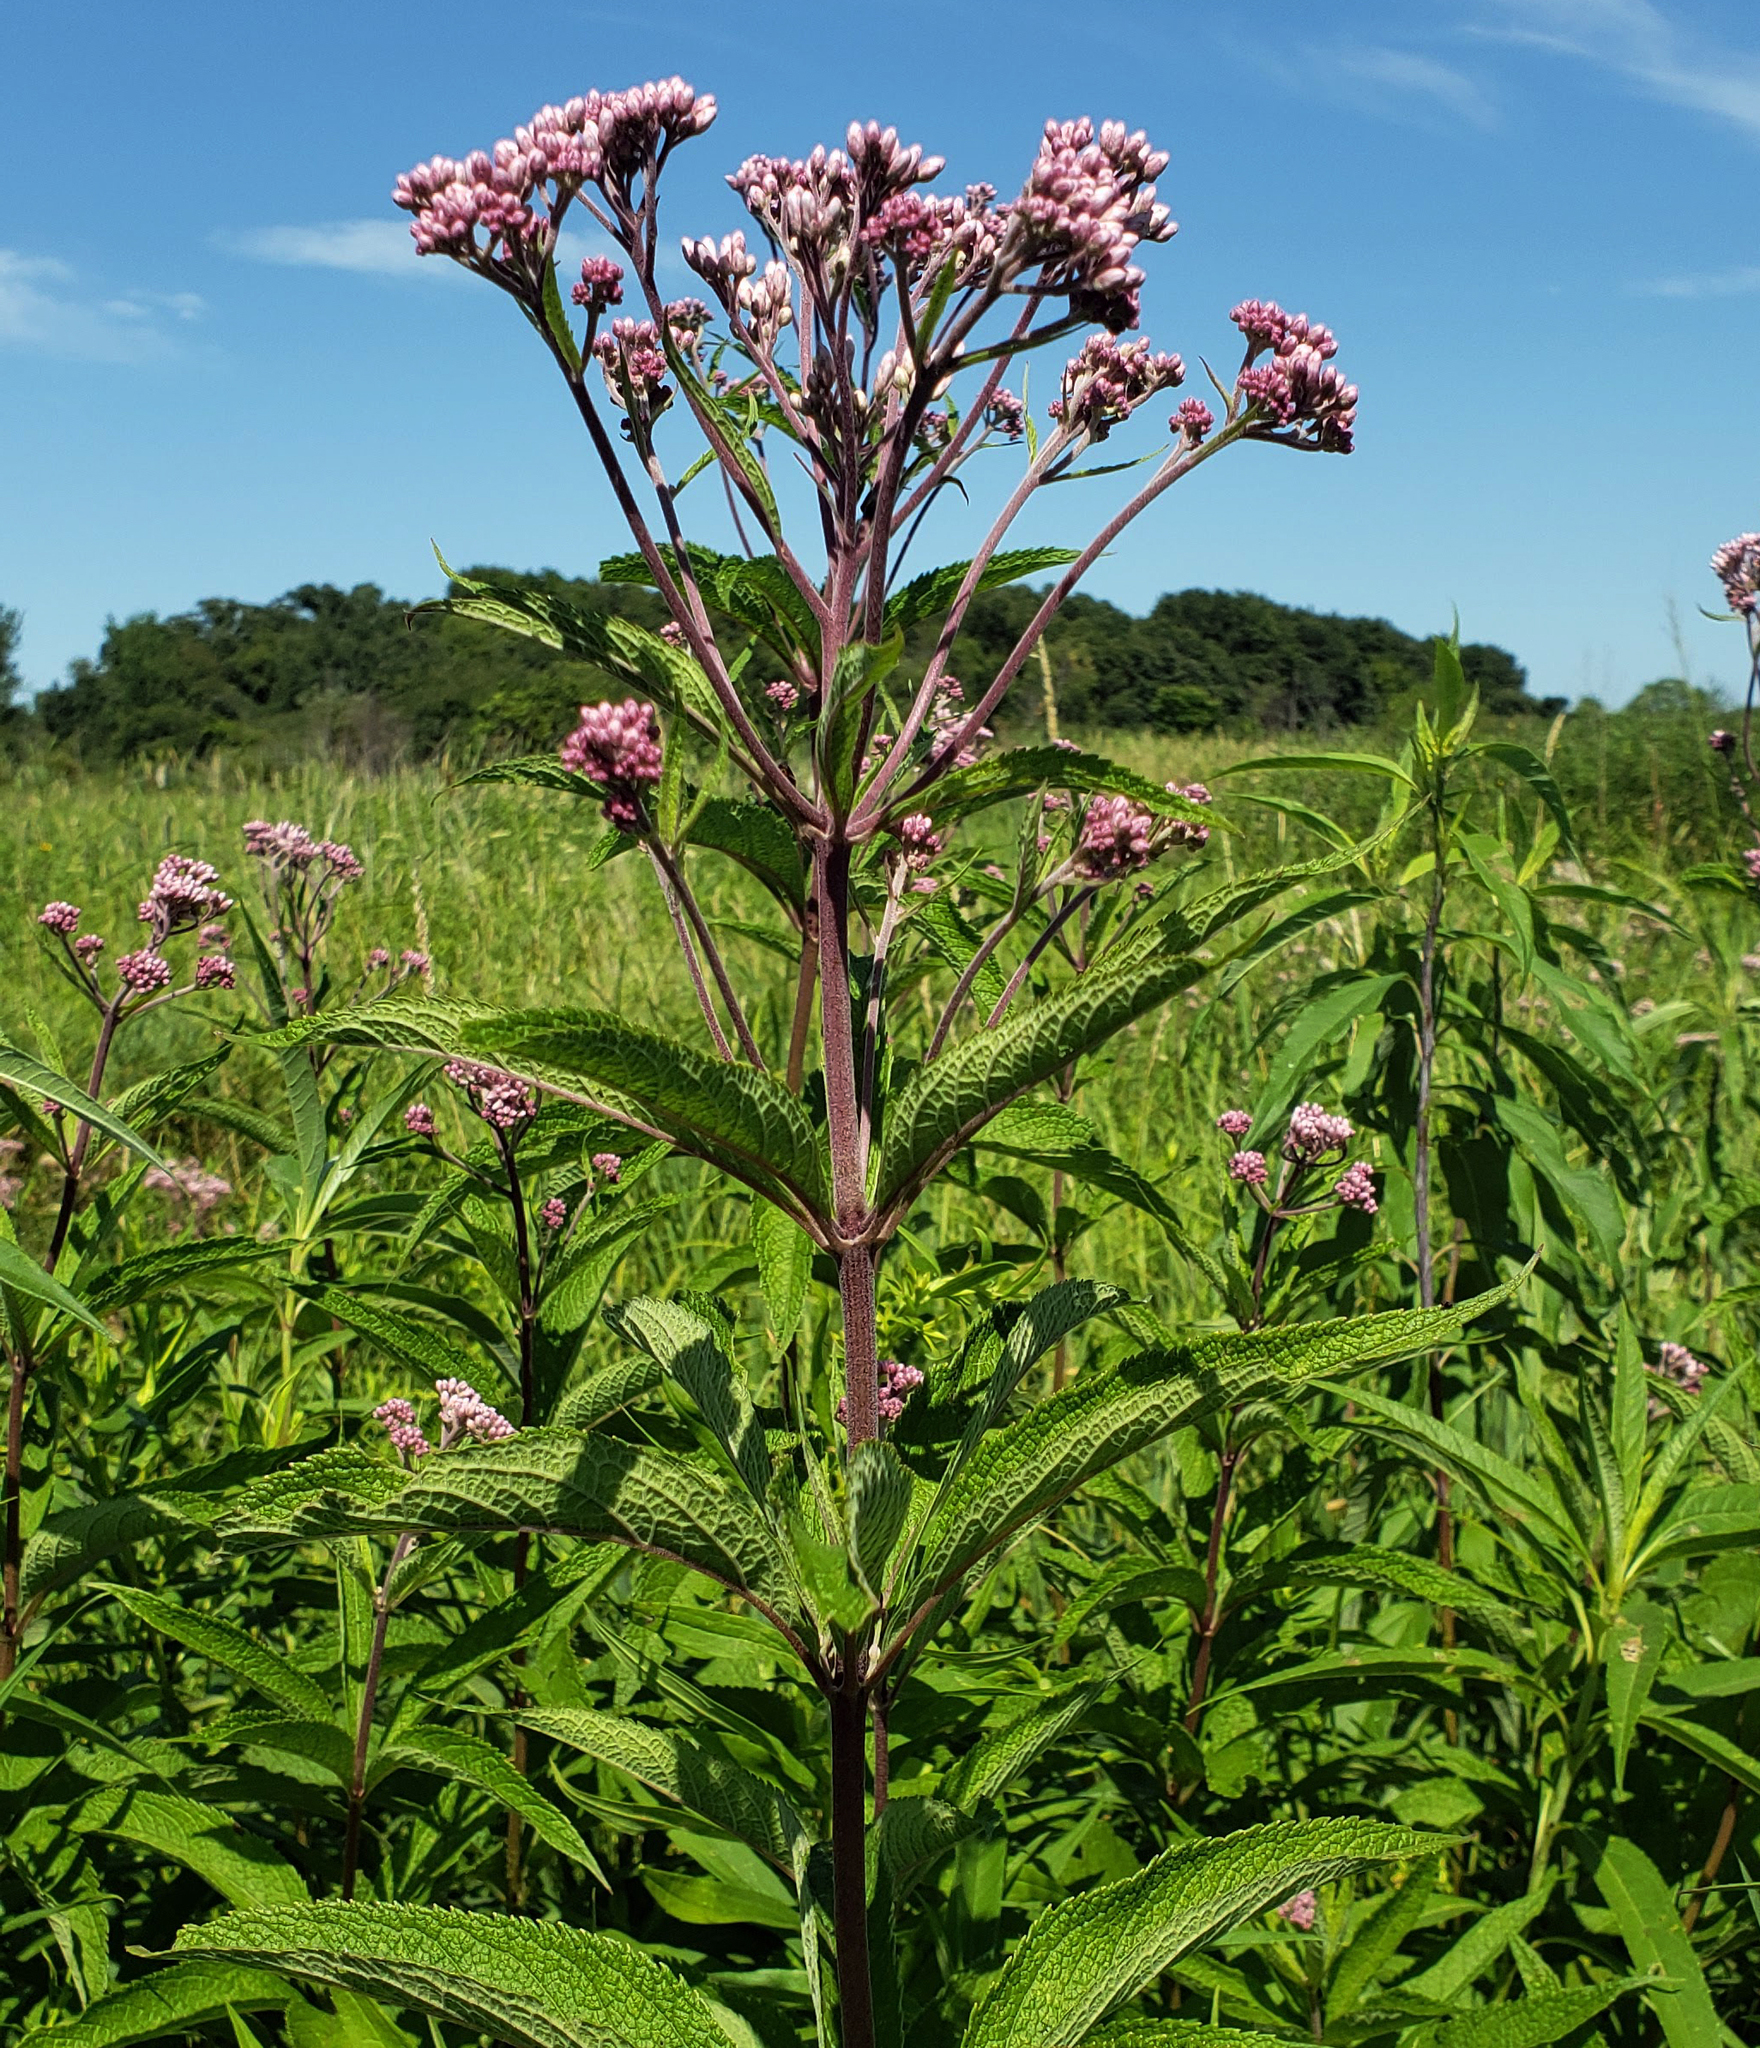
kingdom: Plantae
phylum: Tracheophyta
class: Magnoliopsida
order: Asterales
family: Asteraceae
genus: Eutrochium
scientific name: Eutrochium maculatum
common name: Spotted joe pye weed
